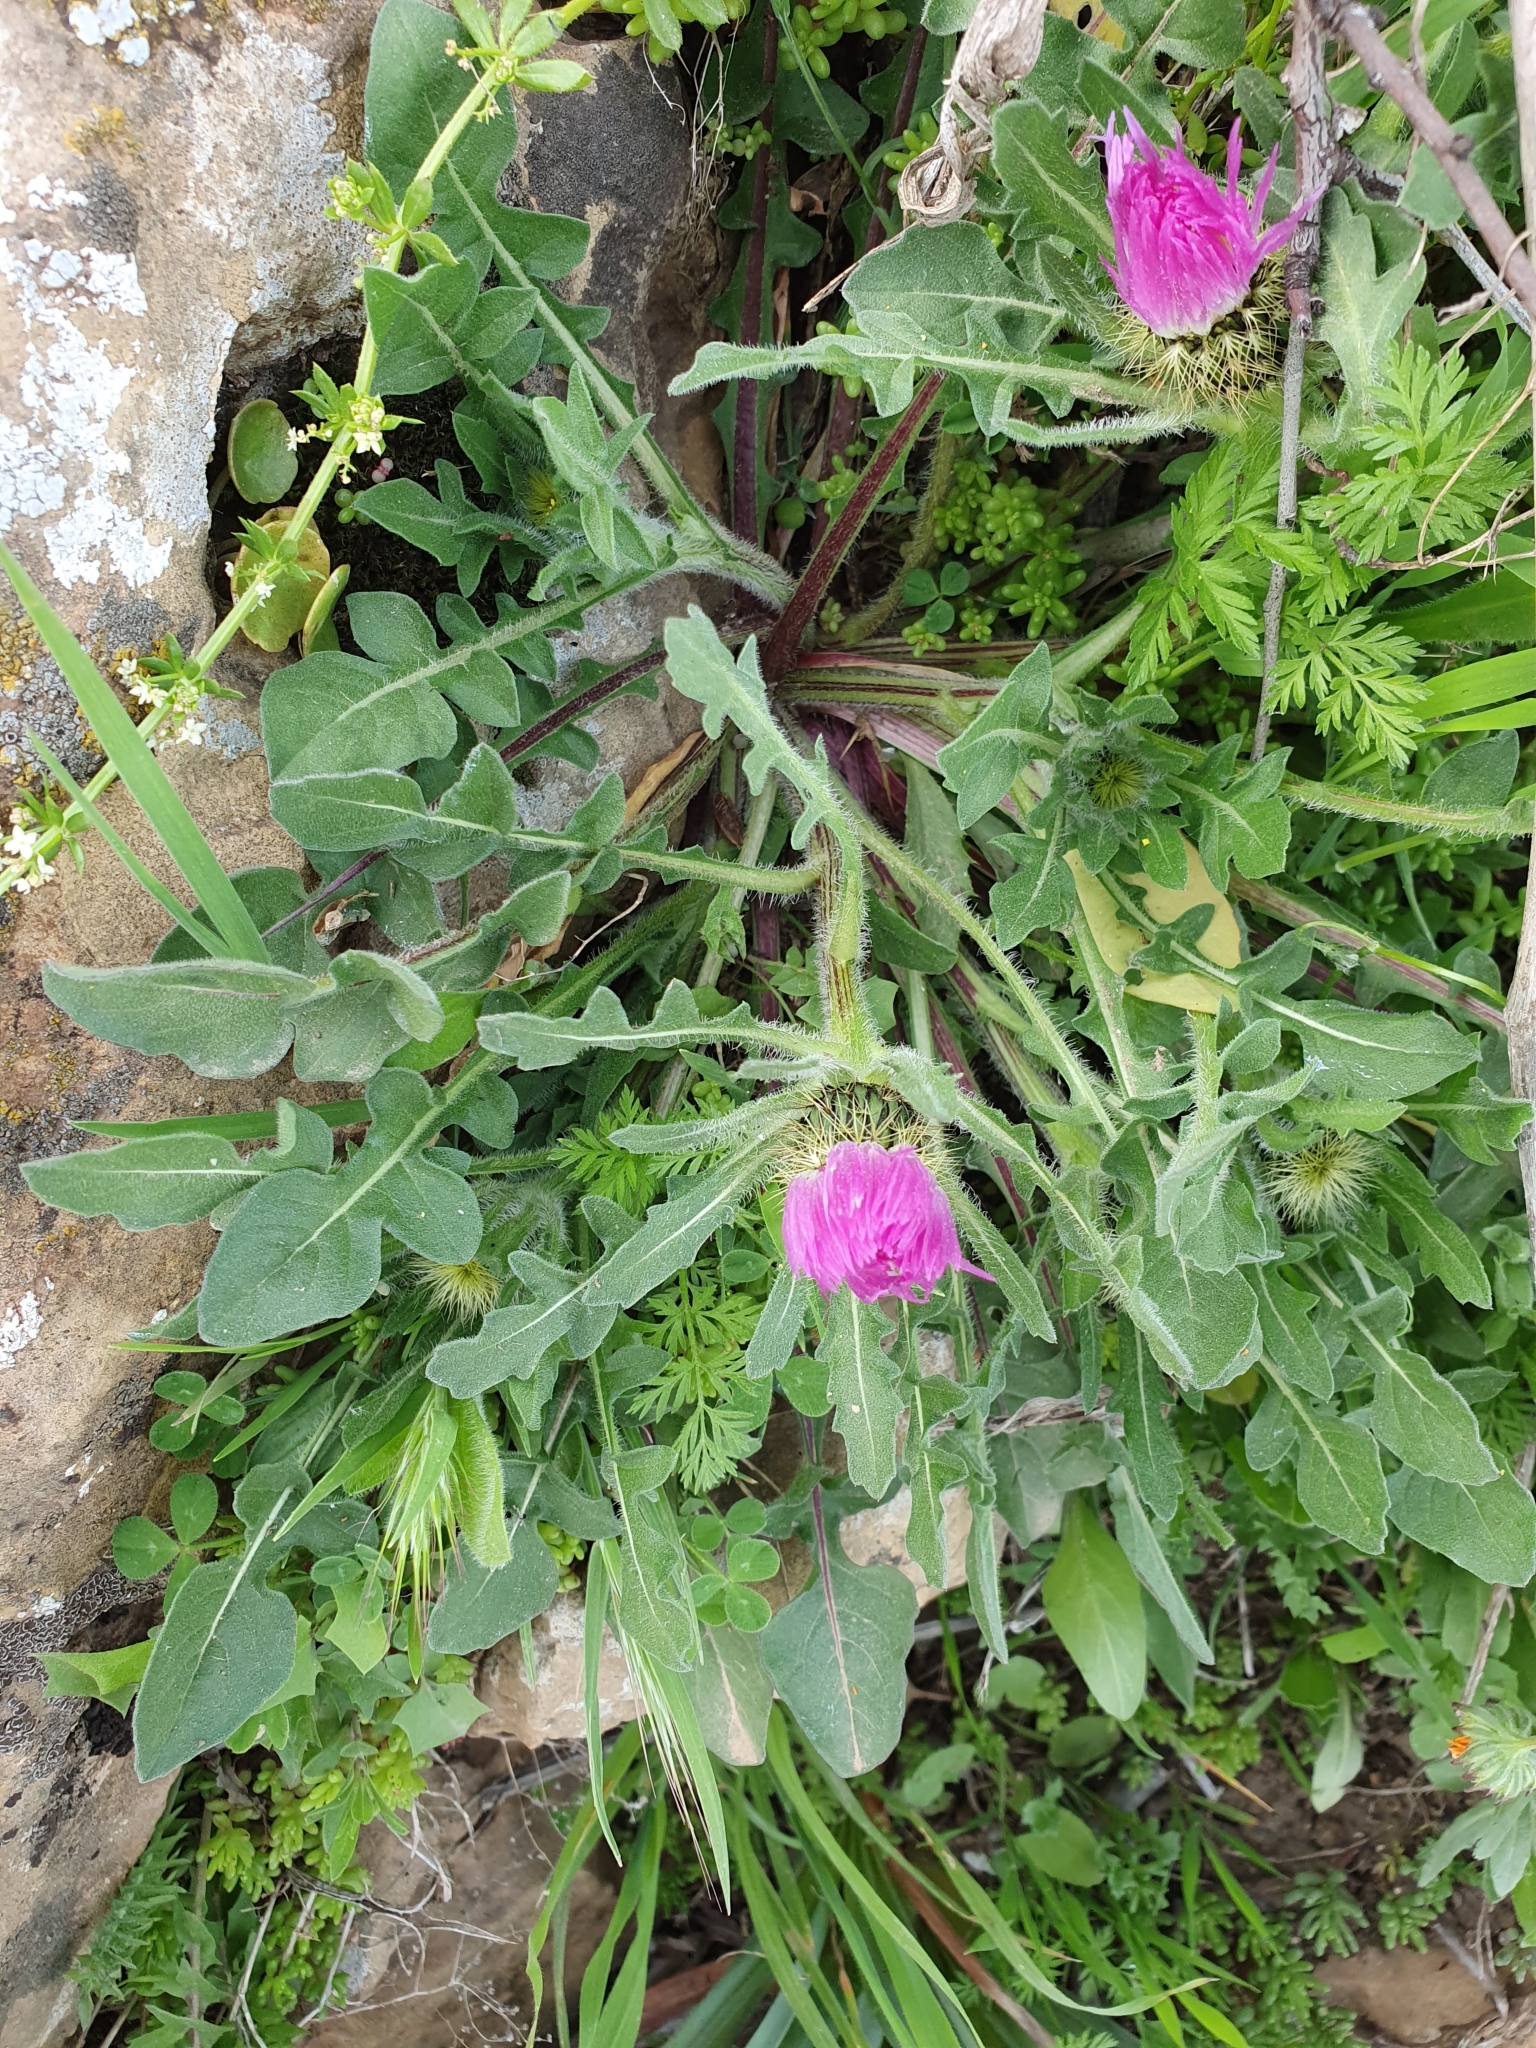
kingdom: Plantae
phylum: Tracheophyta
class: Magnoliopsida
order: Asterales
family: Asteraceae
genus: Centaurea
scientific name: Centaurea pullata
